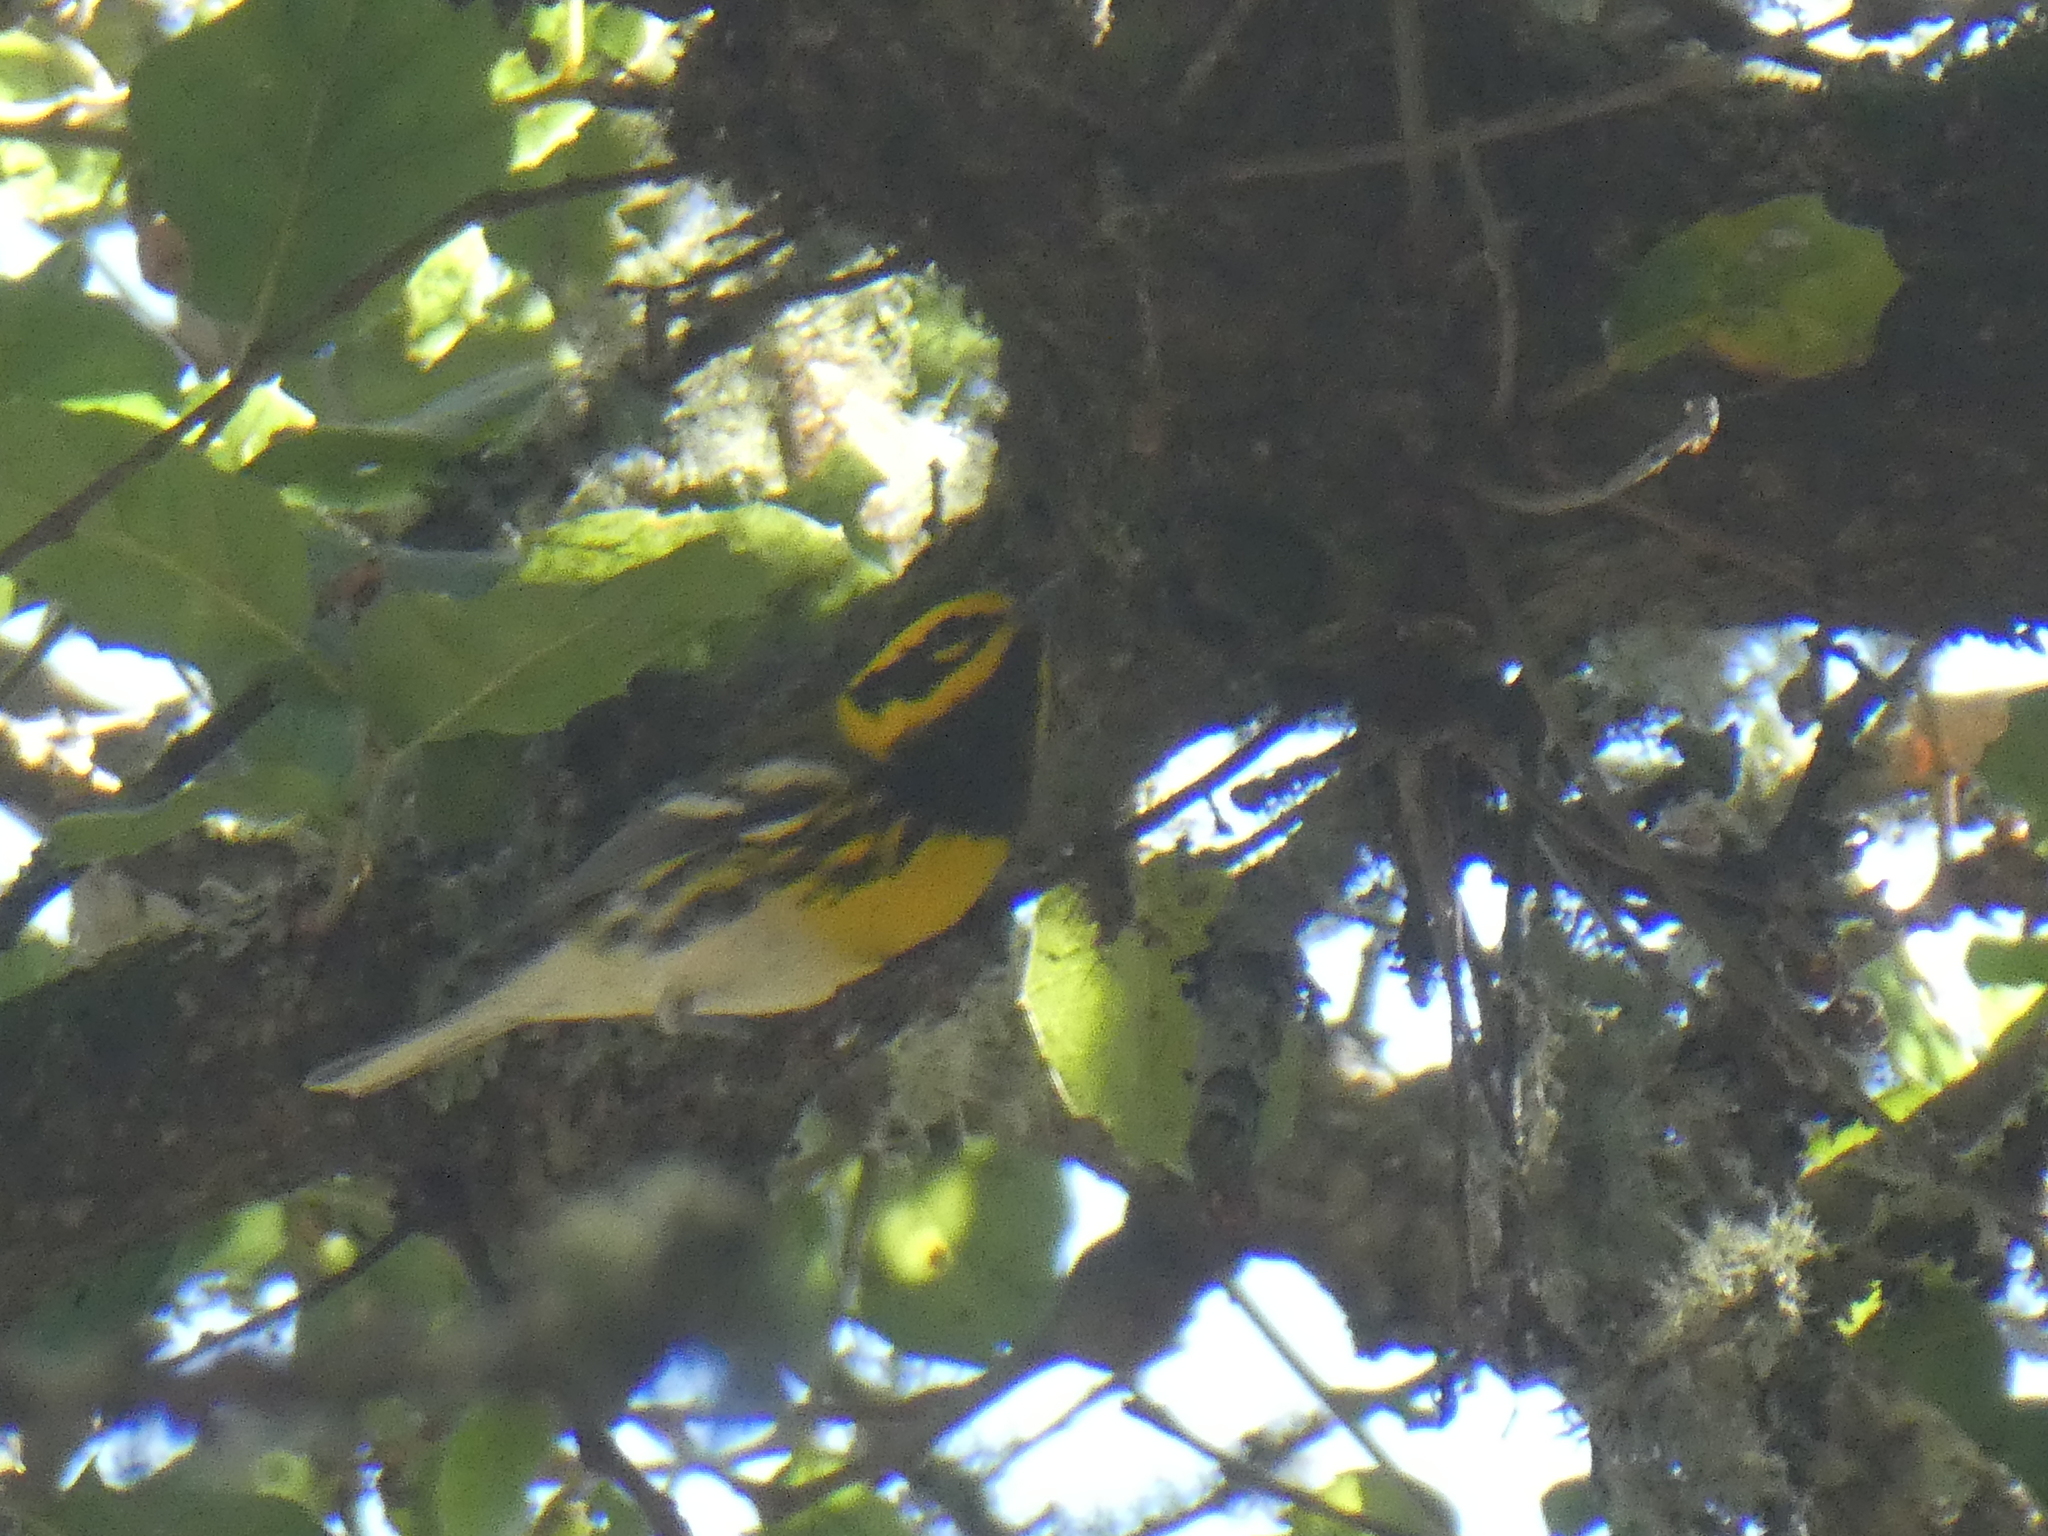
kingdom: Animalia
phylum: Chordata
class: Aves
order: Passeriformes
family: Parulidae
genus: Setophaga
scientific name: Setophaga townsendi
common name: Townsend's warbler
